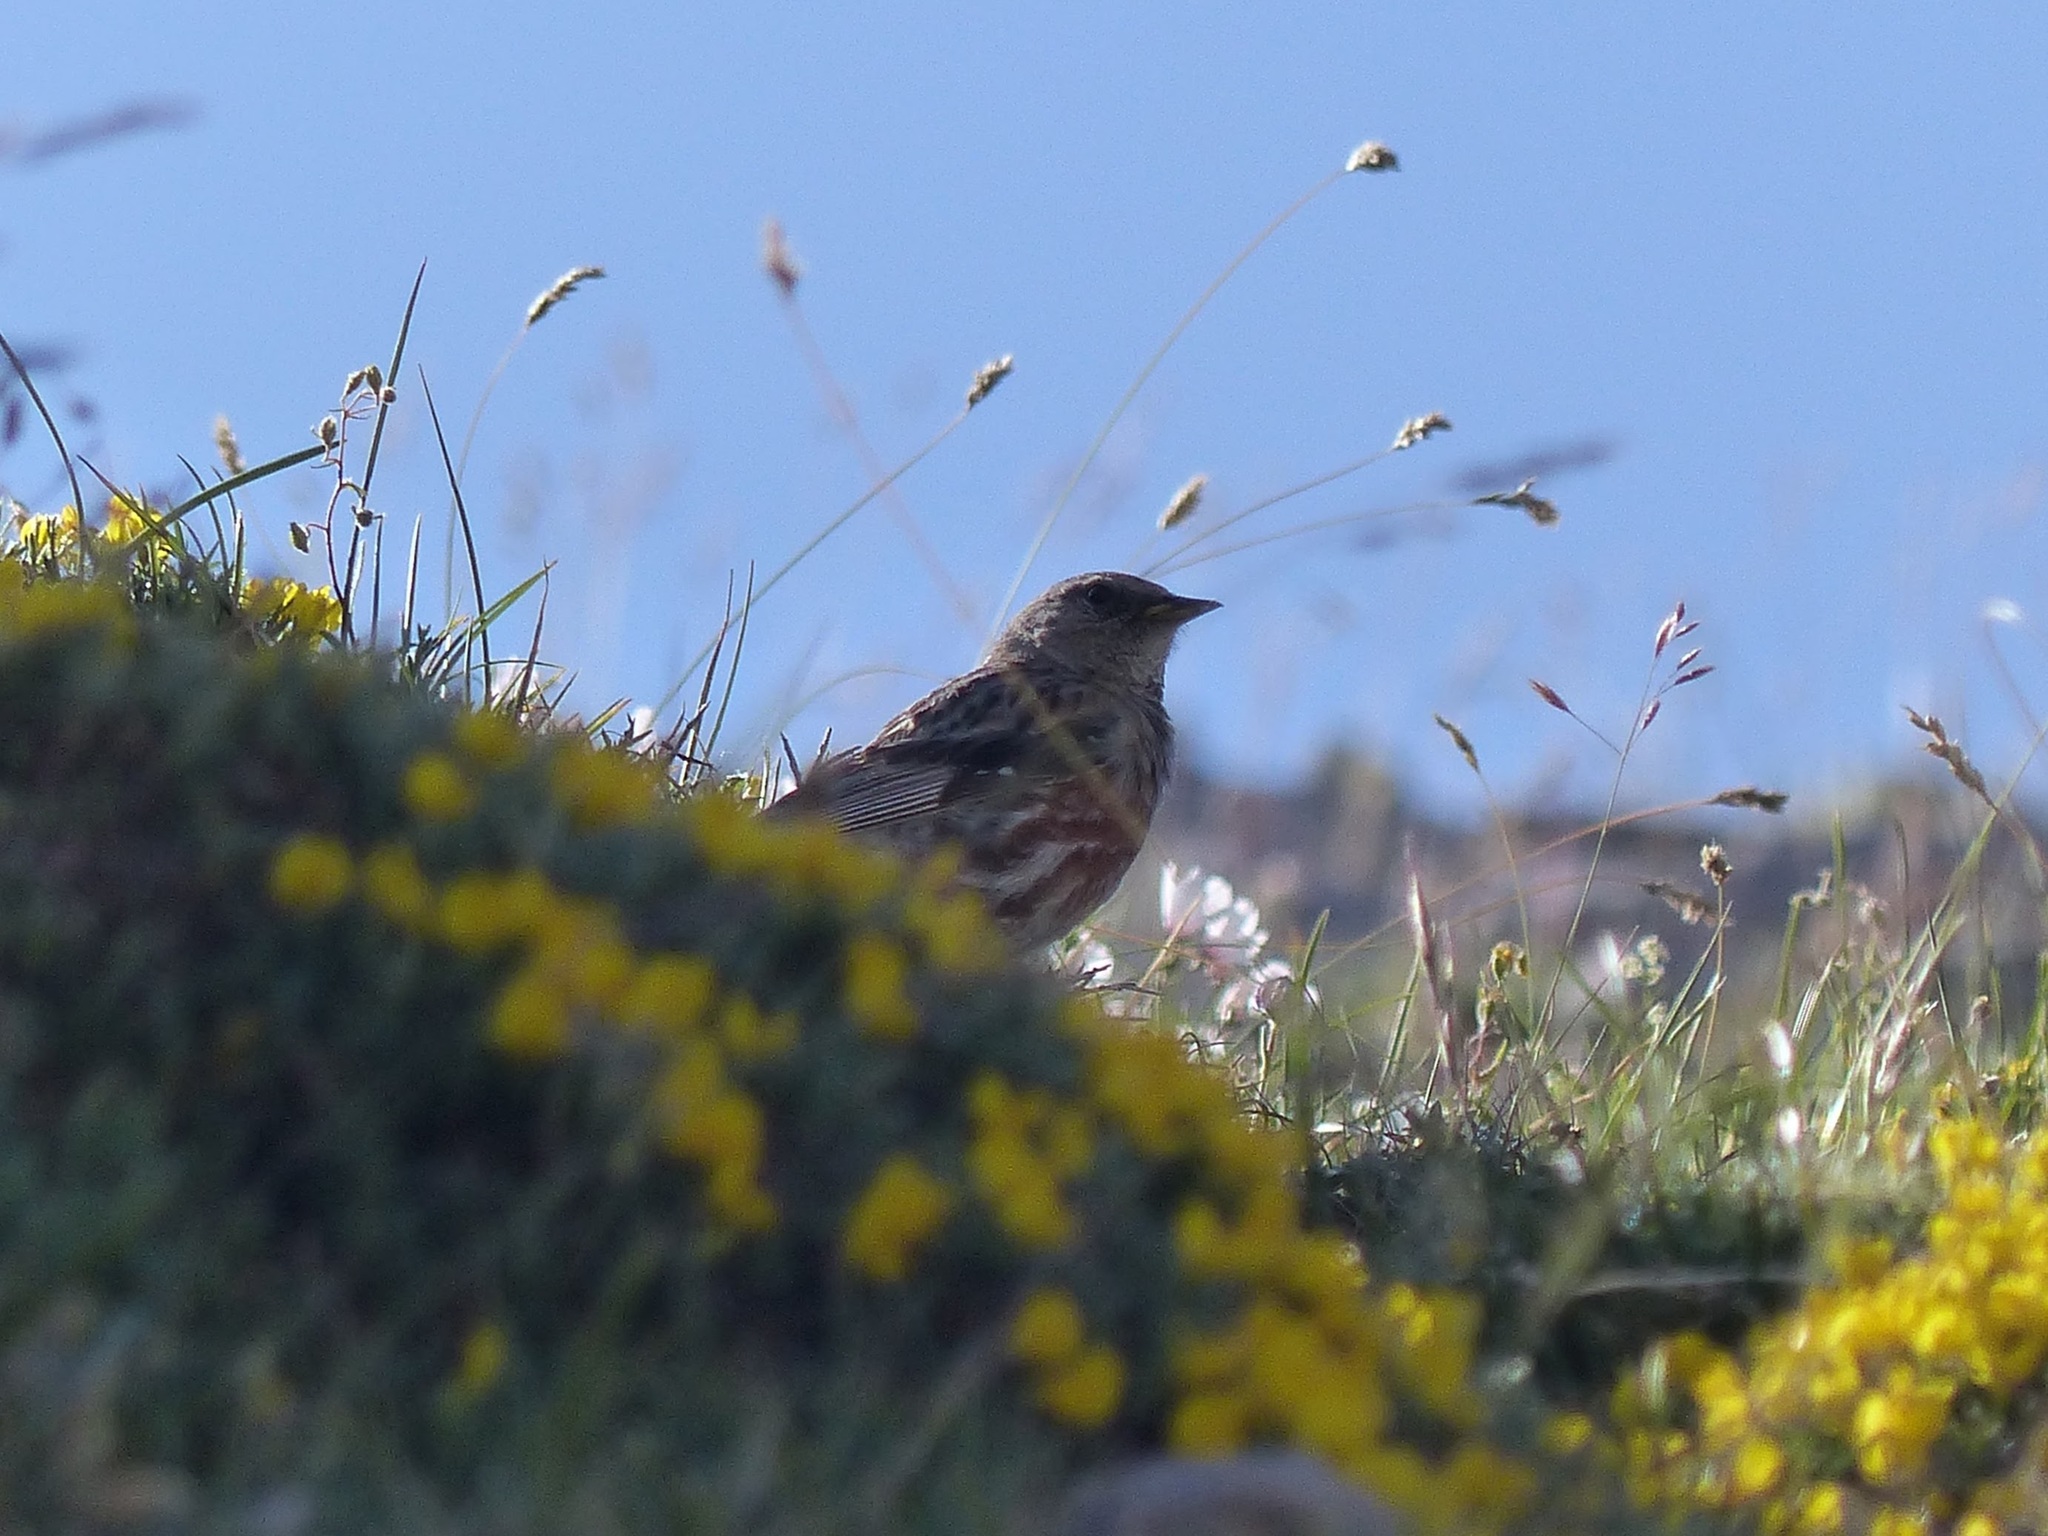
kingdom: Animalia
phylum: Chordata
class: Aves
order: Passeriformes
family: Prunellidae
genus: Prunella
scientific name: Prunella collaris
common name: Alpine accentor
